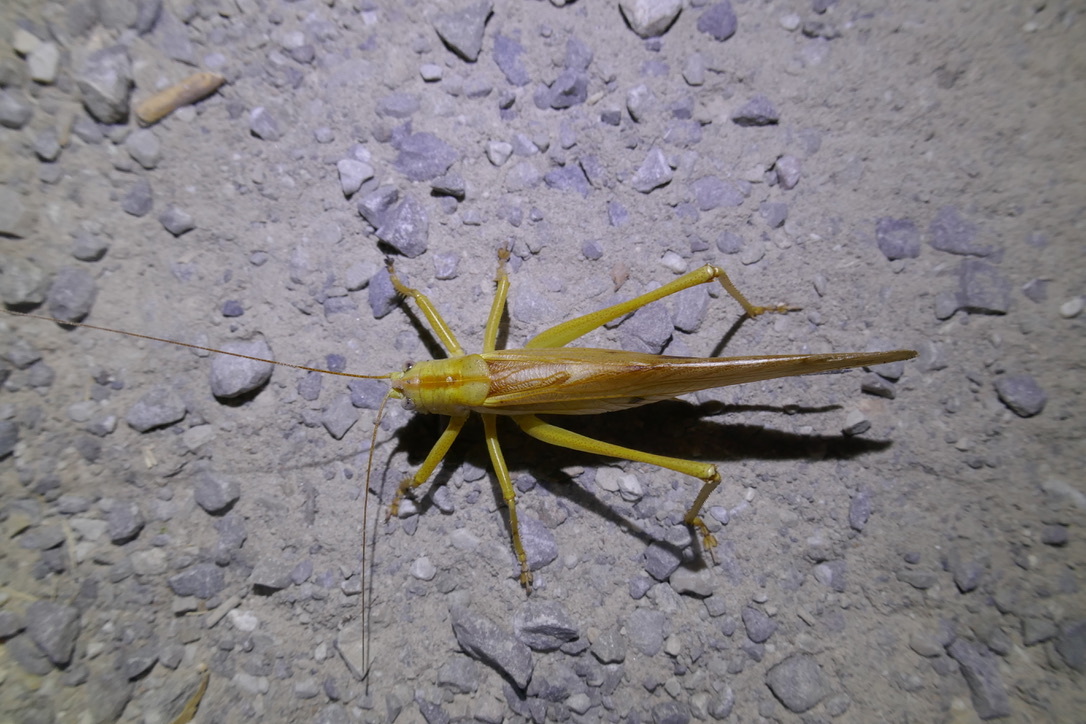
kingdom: Animalia
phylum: Arthropoda
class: Insecta
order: Orthoptera
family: Tettigoniidae
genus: Tettigonia
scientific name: Tettigonia viridissima
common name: Great green bush-cricket
